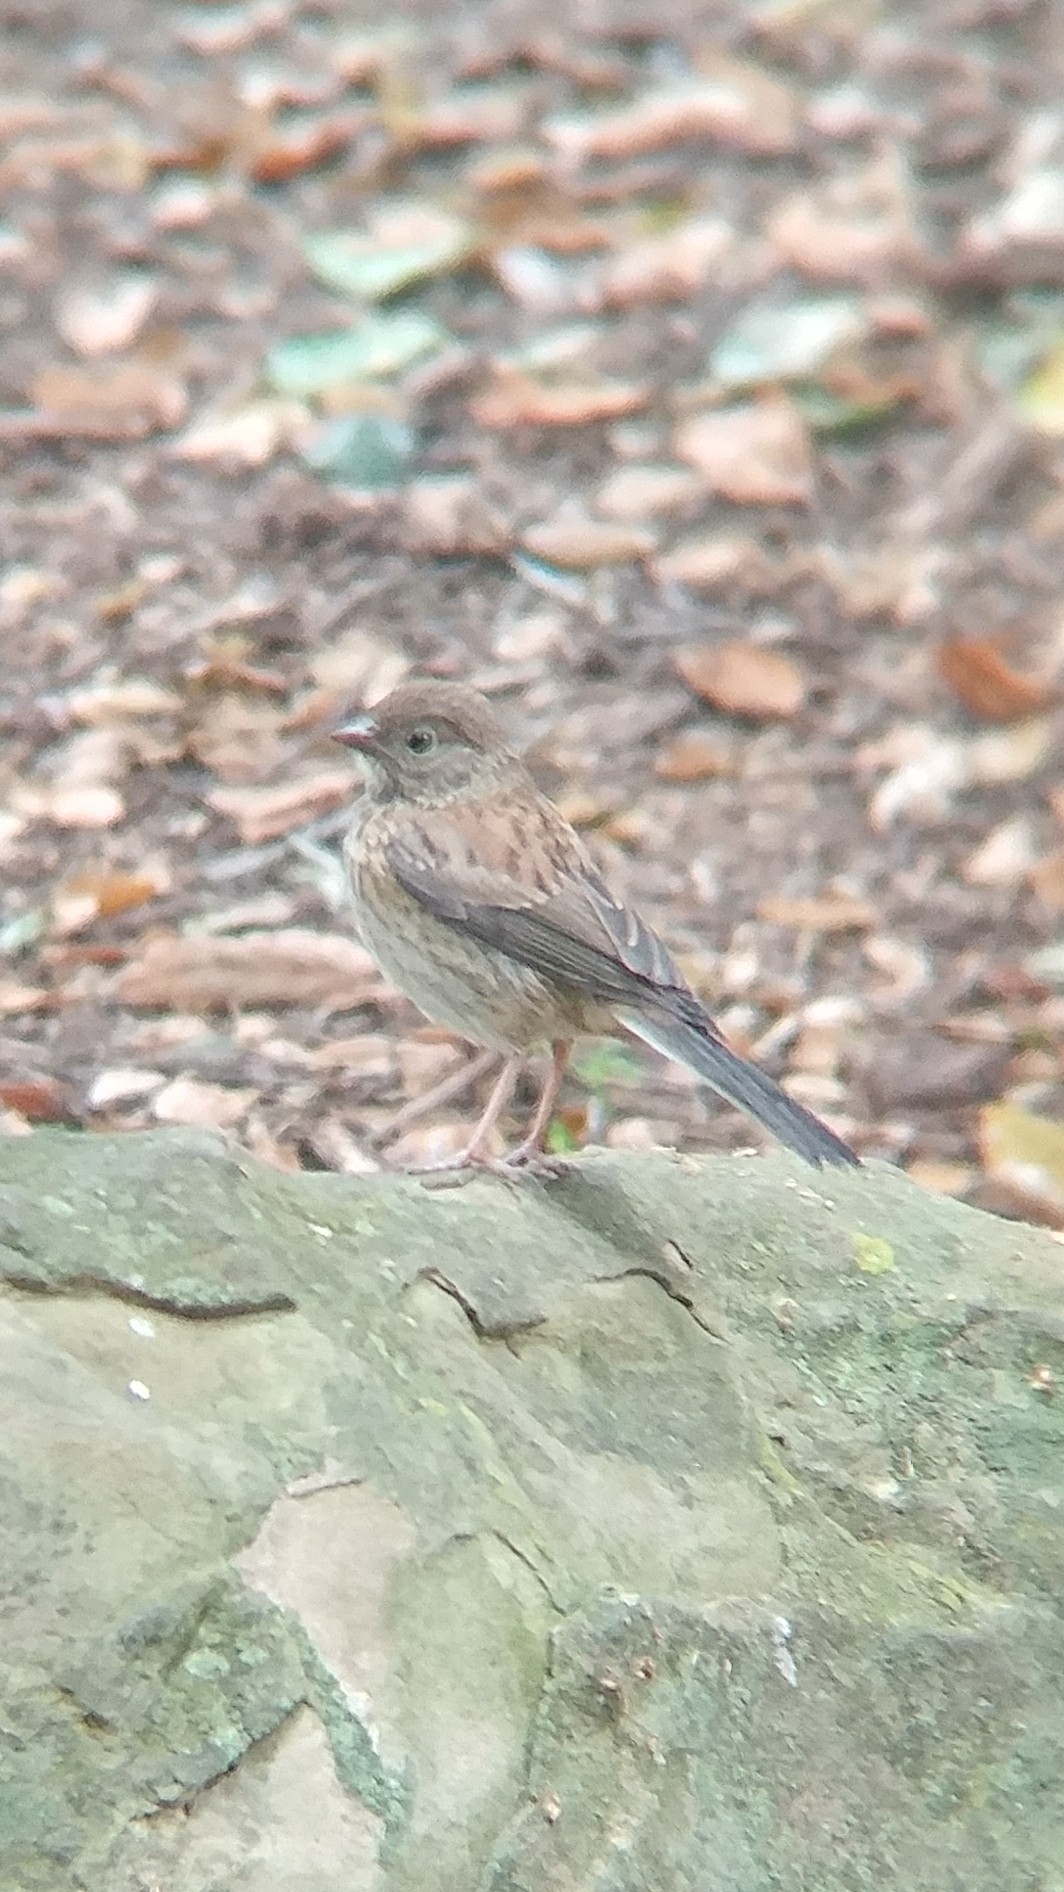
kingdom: Animalia
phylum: Chordata
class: Aves
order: Passeriformes
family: Passerellidae
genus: Junco
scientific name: Junco hyemalis
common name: Dark-eyed junco
